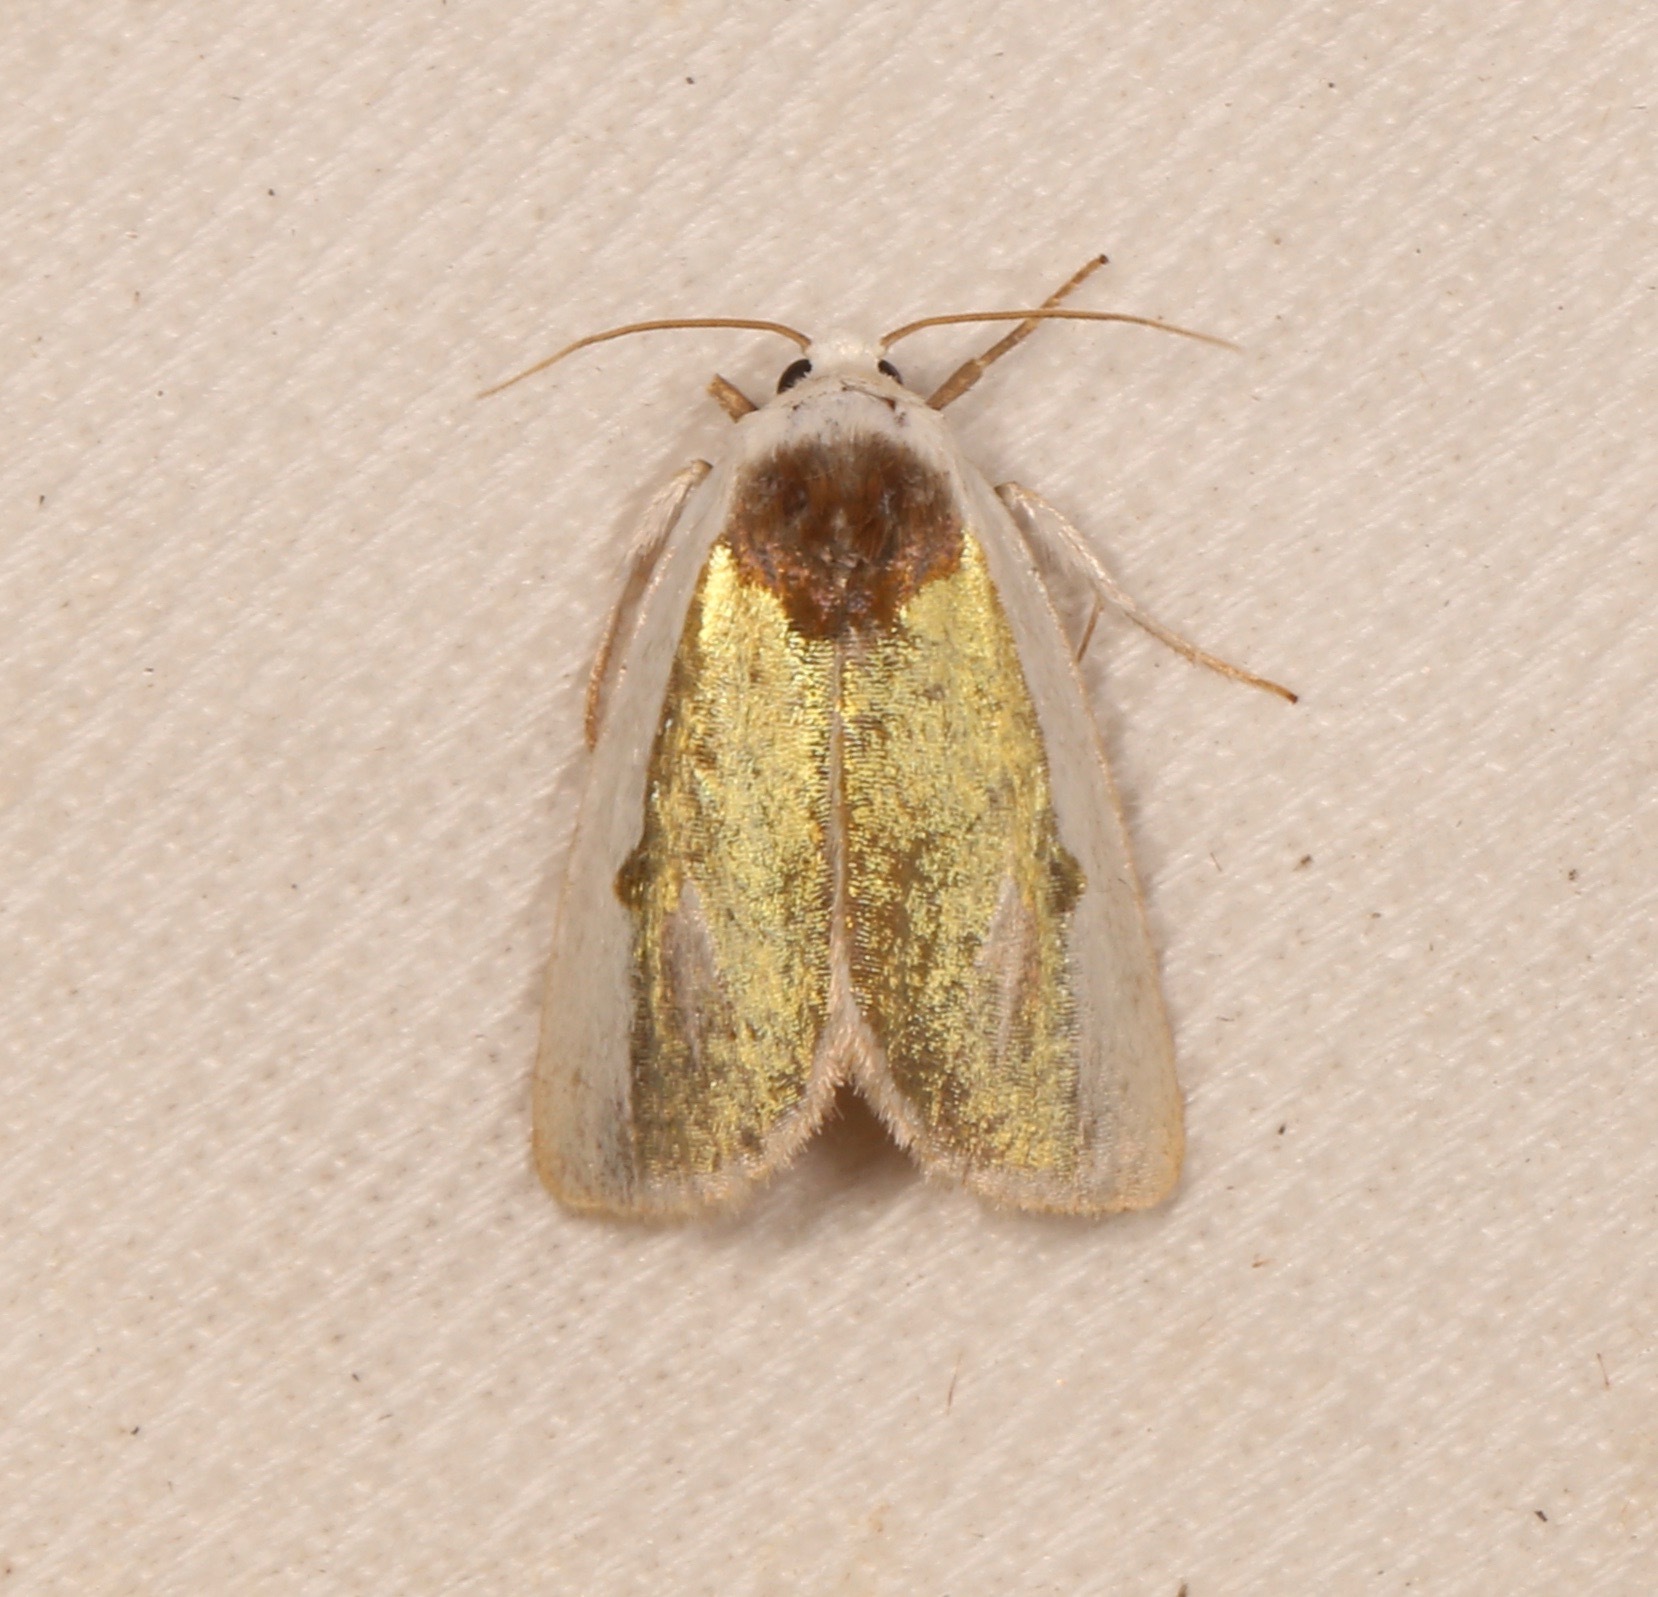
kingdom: Animalia
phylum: Arthropoda
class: Insecta
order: Lepidoptera
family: Noctuidae
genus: Neumoegenia
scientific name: Neumoegenia poetica
